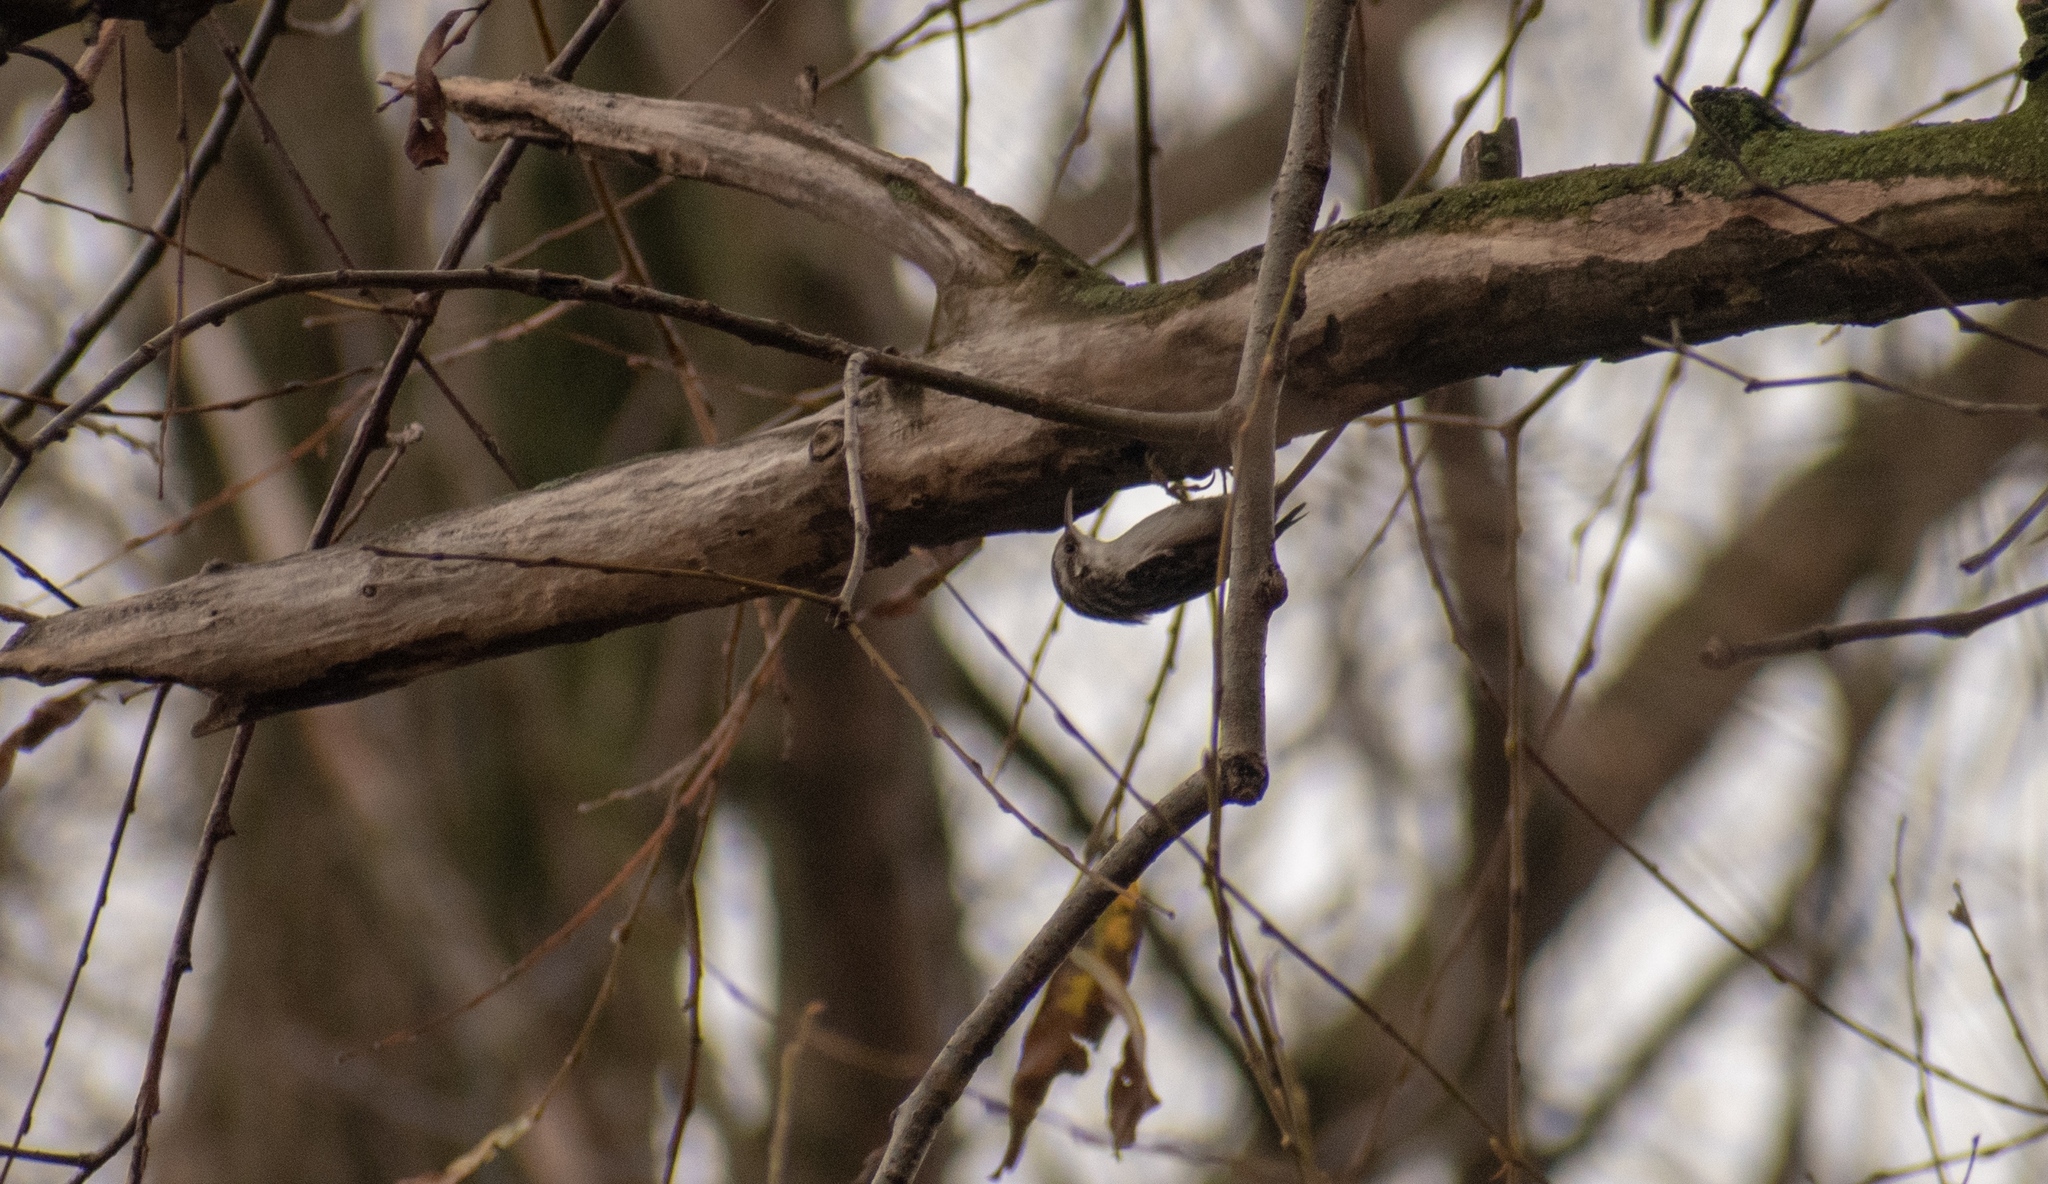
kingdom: Animalia
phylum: Chordata
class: Aves
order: Passeriformes
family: Certhiidae
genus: Certhia
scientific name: Certhia brachydactyla
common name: Short-toed treecreeper
